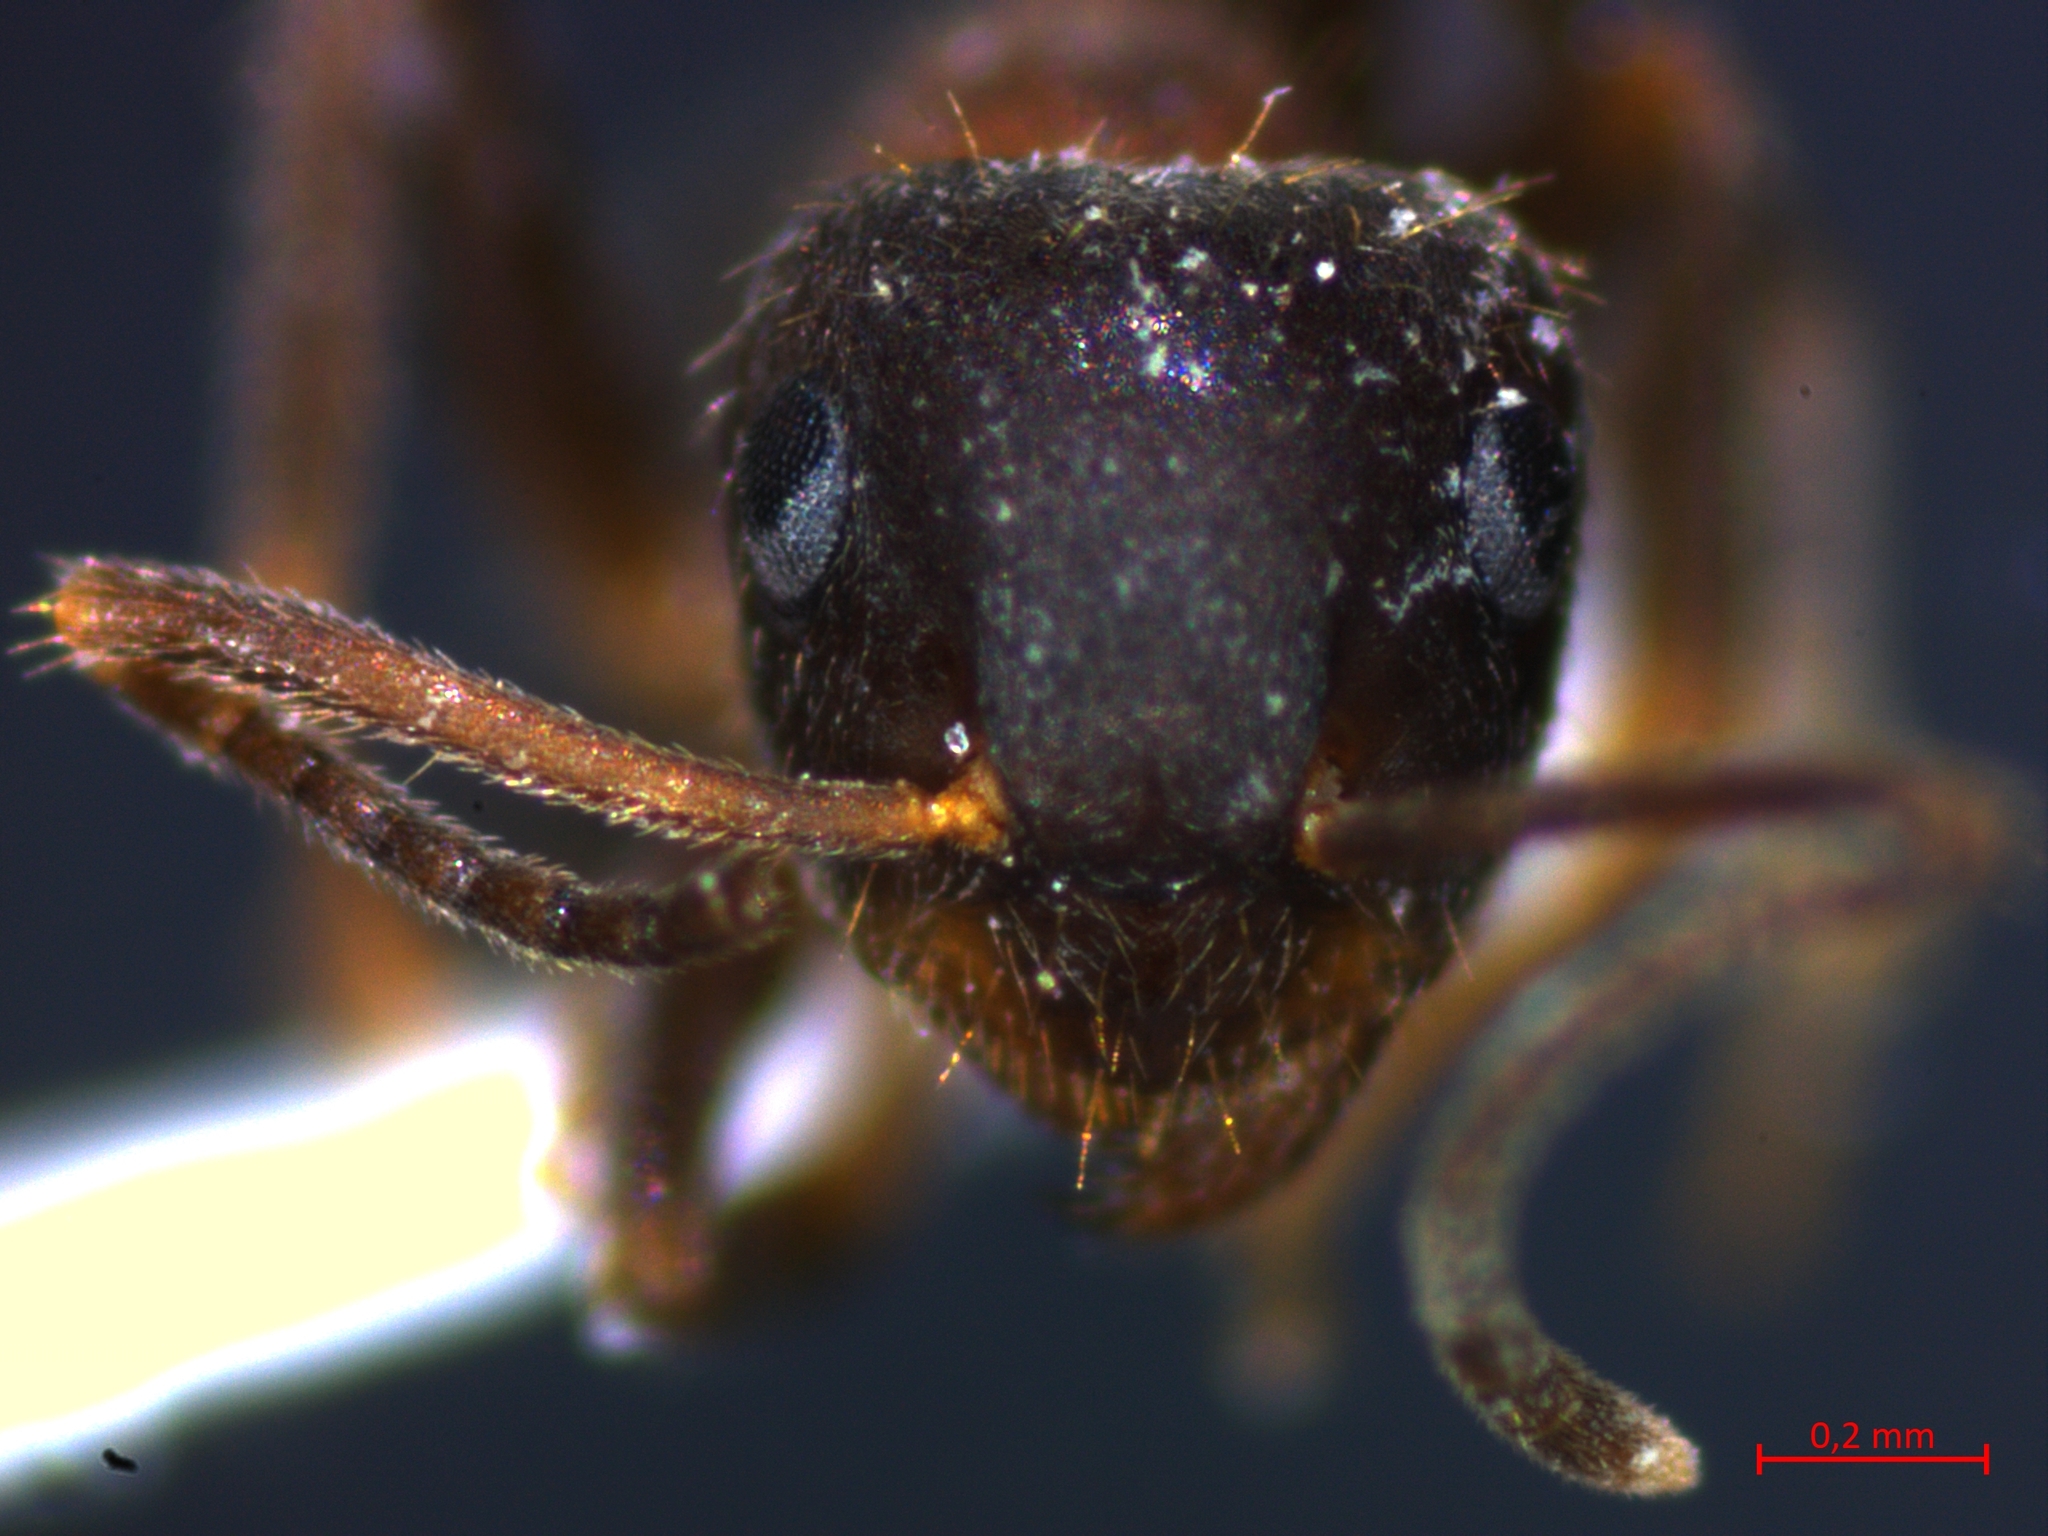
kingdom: Animalia
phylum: Arthropoda
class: Insecta
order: Hymenoptera
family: Formicidae
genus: Lasius
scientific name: Lasius emarginatus
